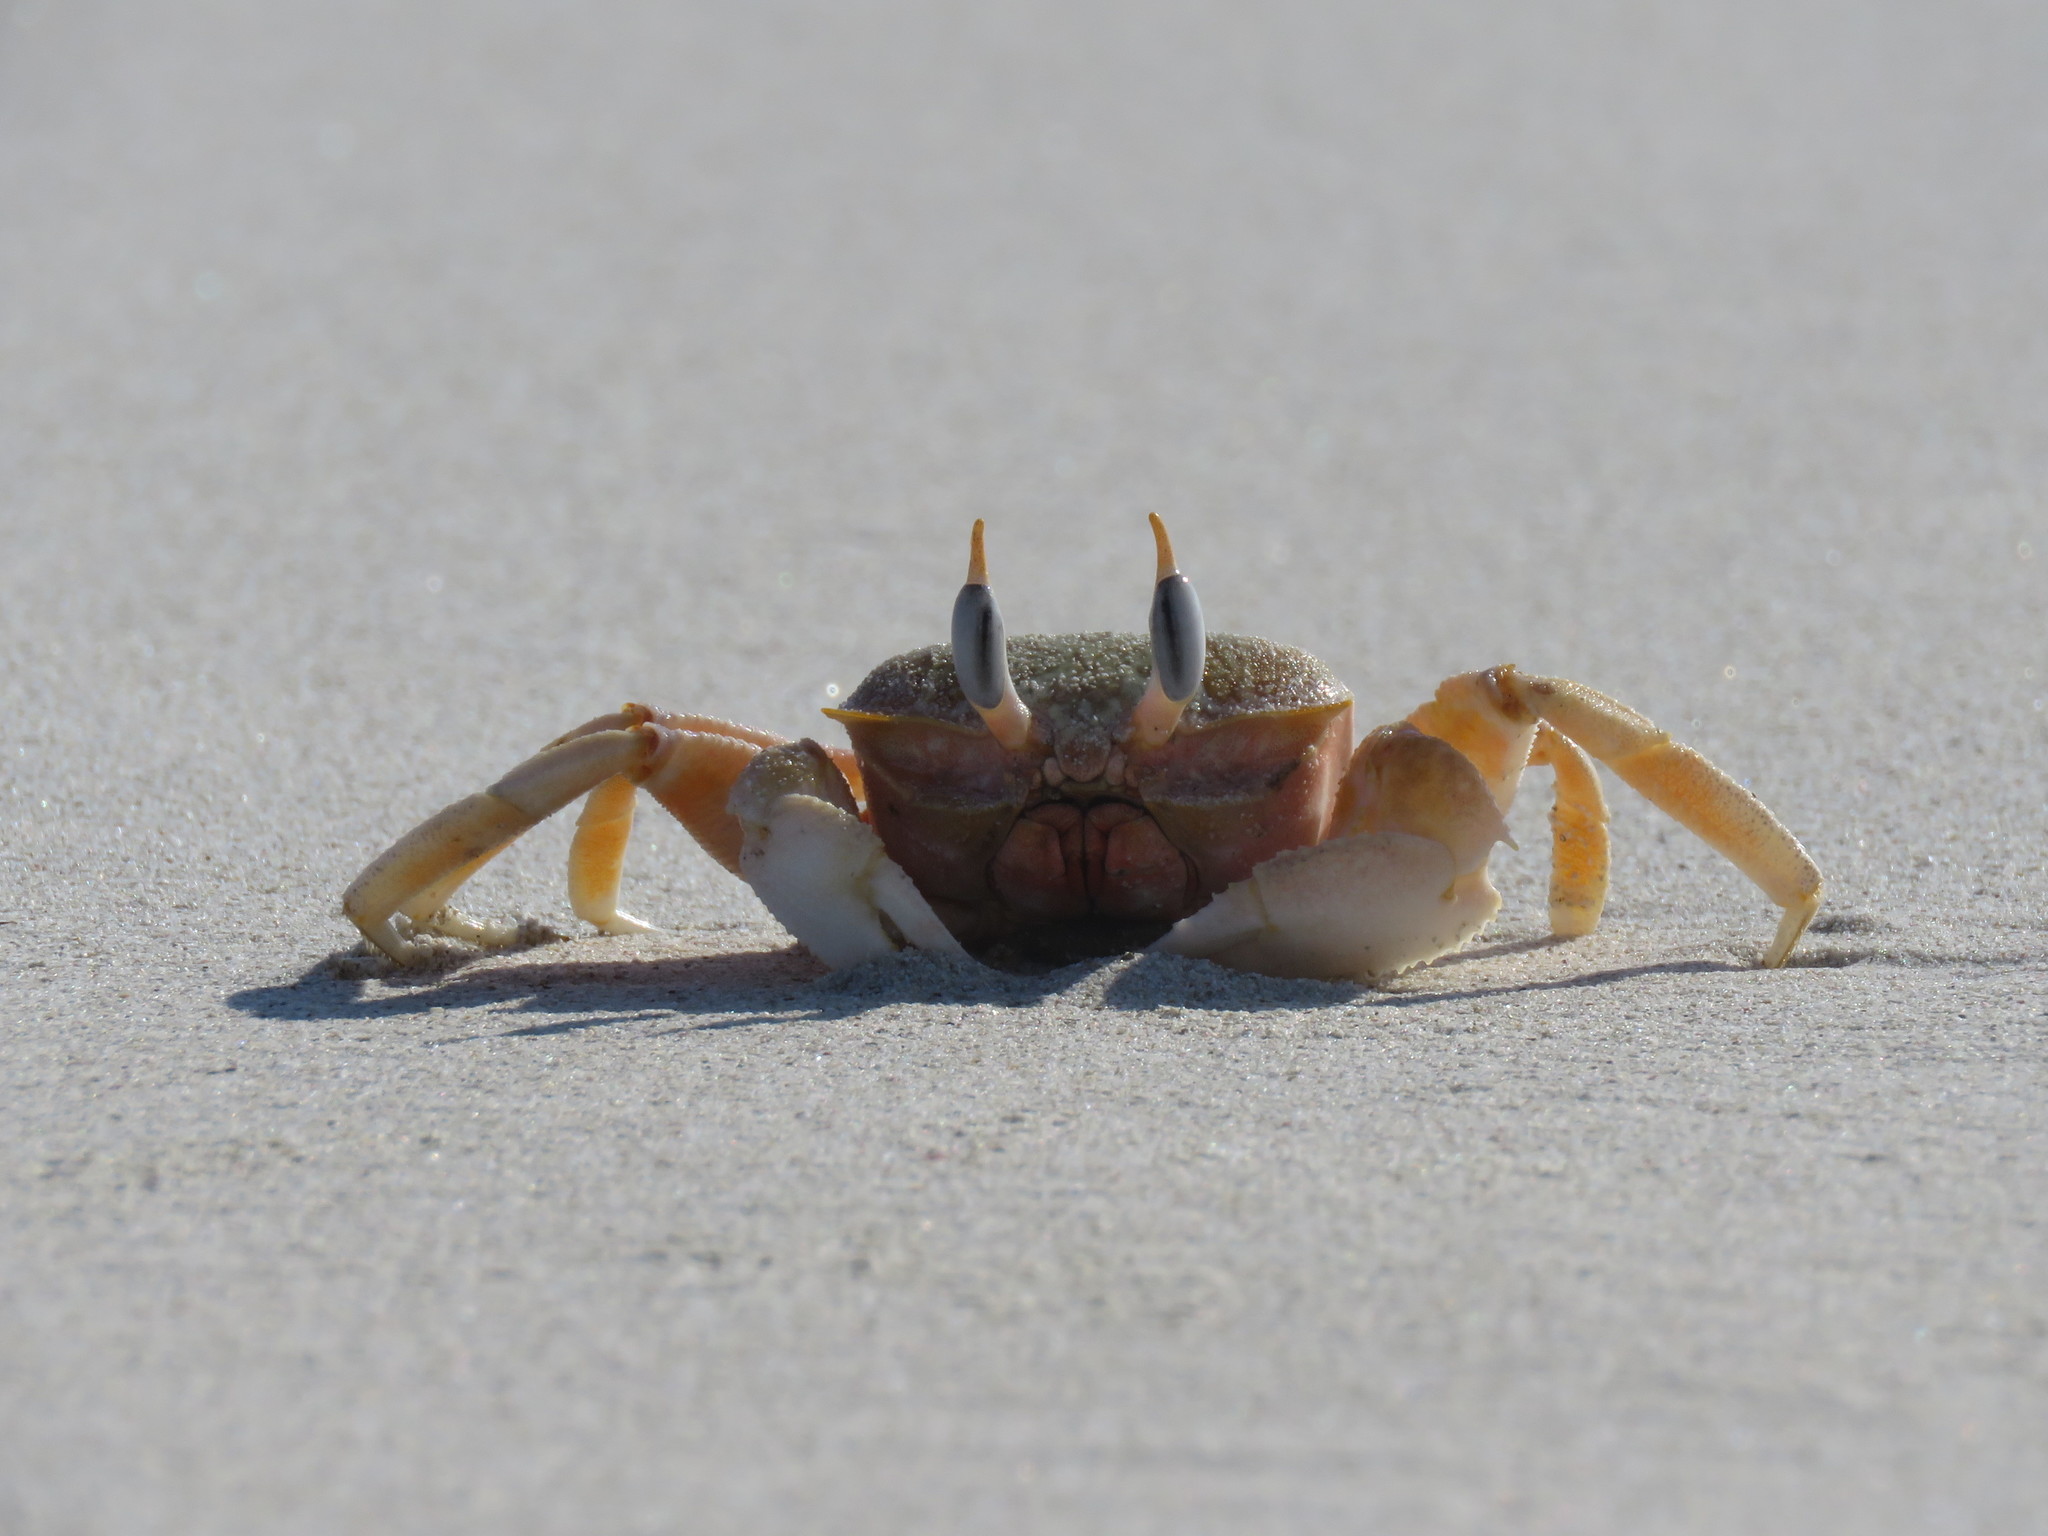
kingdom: Animalia
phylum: Arthropoda
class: Malacostraca
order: Decapoda
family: Ocypodidae
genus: Ocypode
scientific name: Ocypode gaudichaudii
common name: Pacific ghost crab
